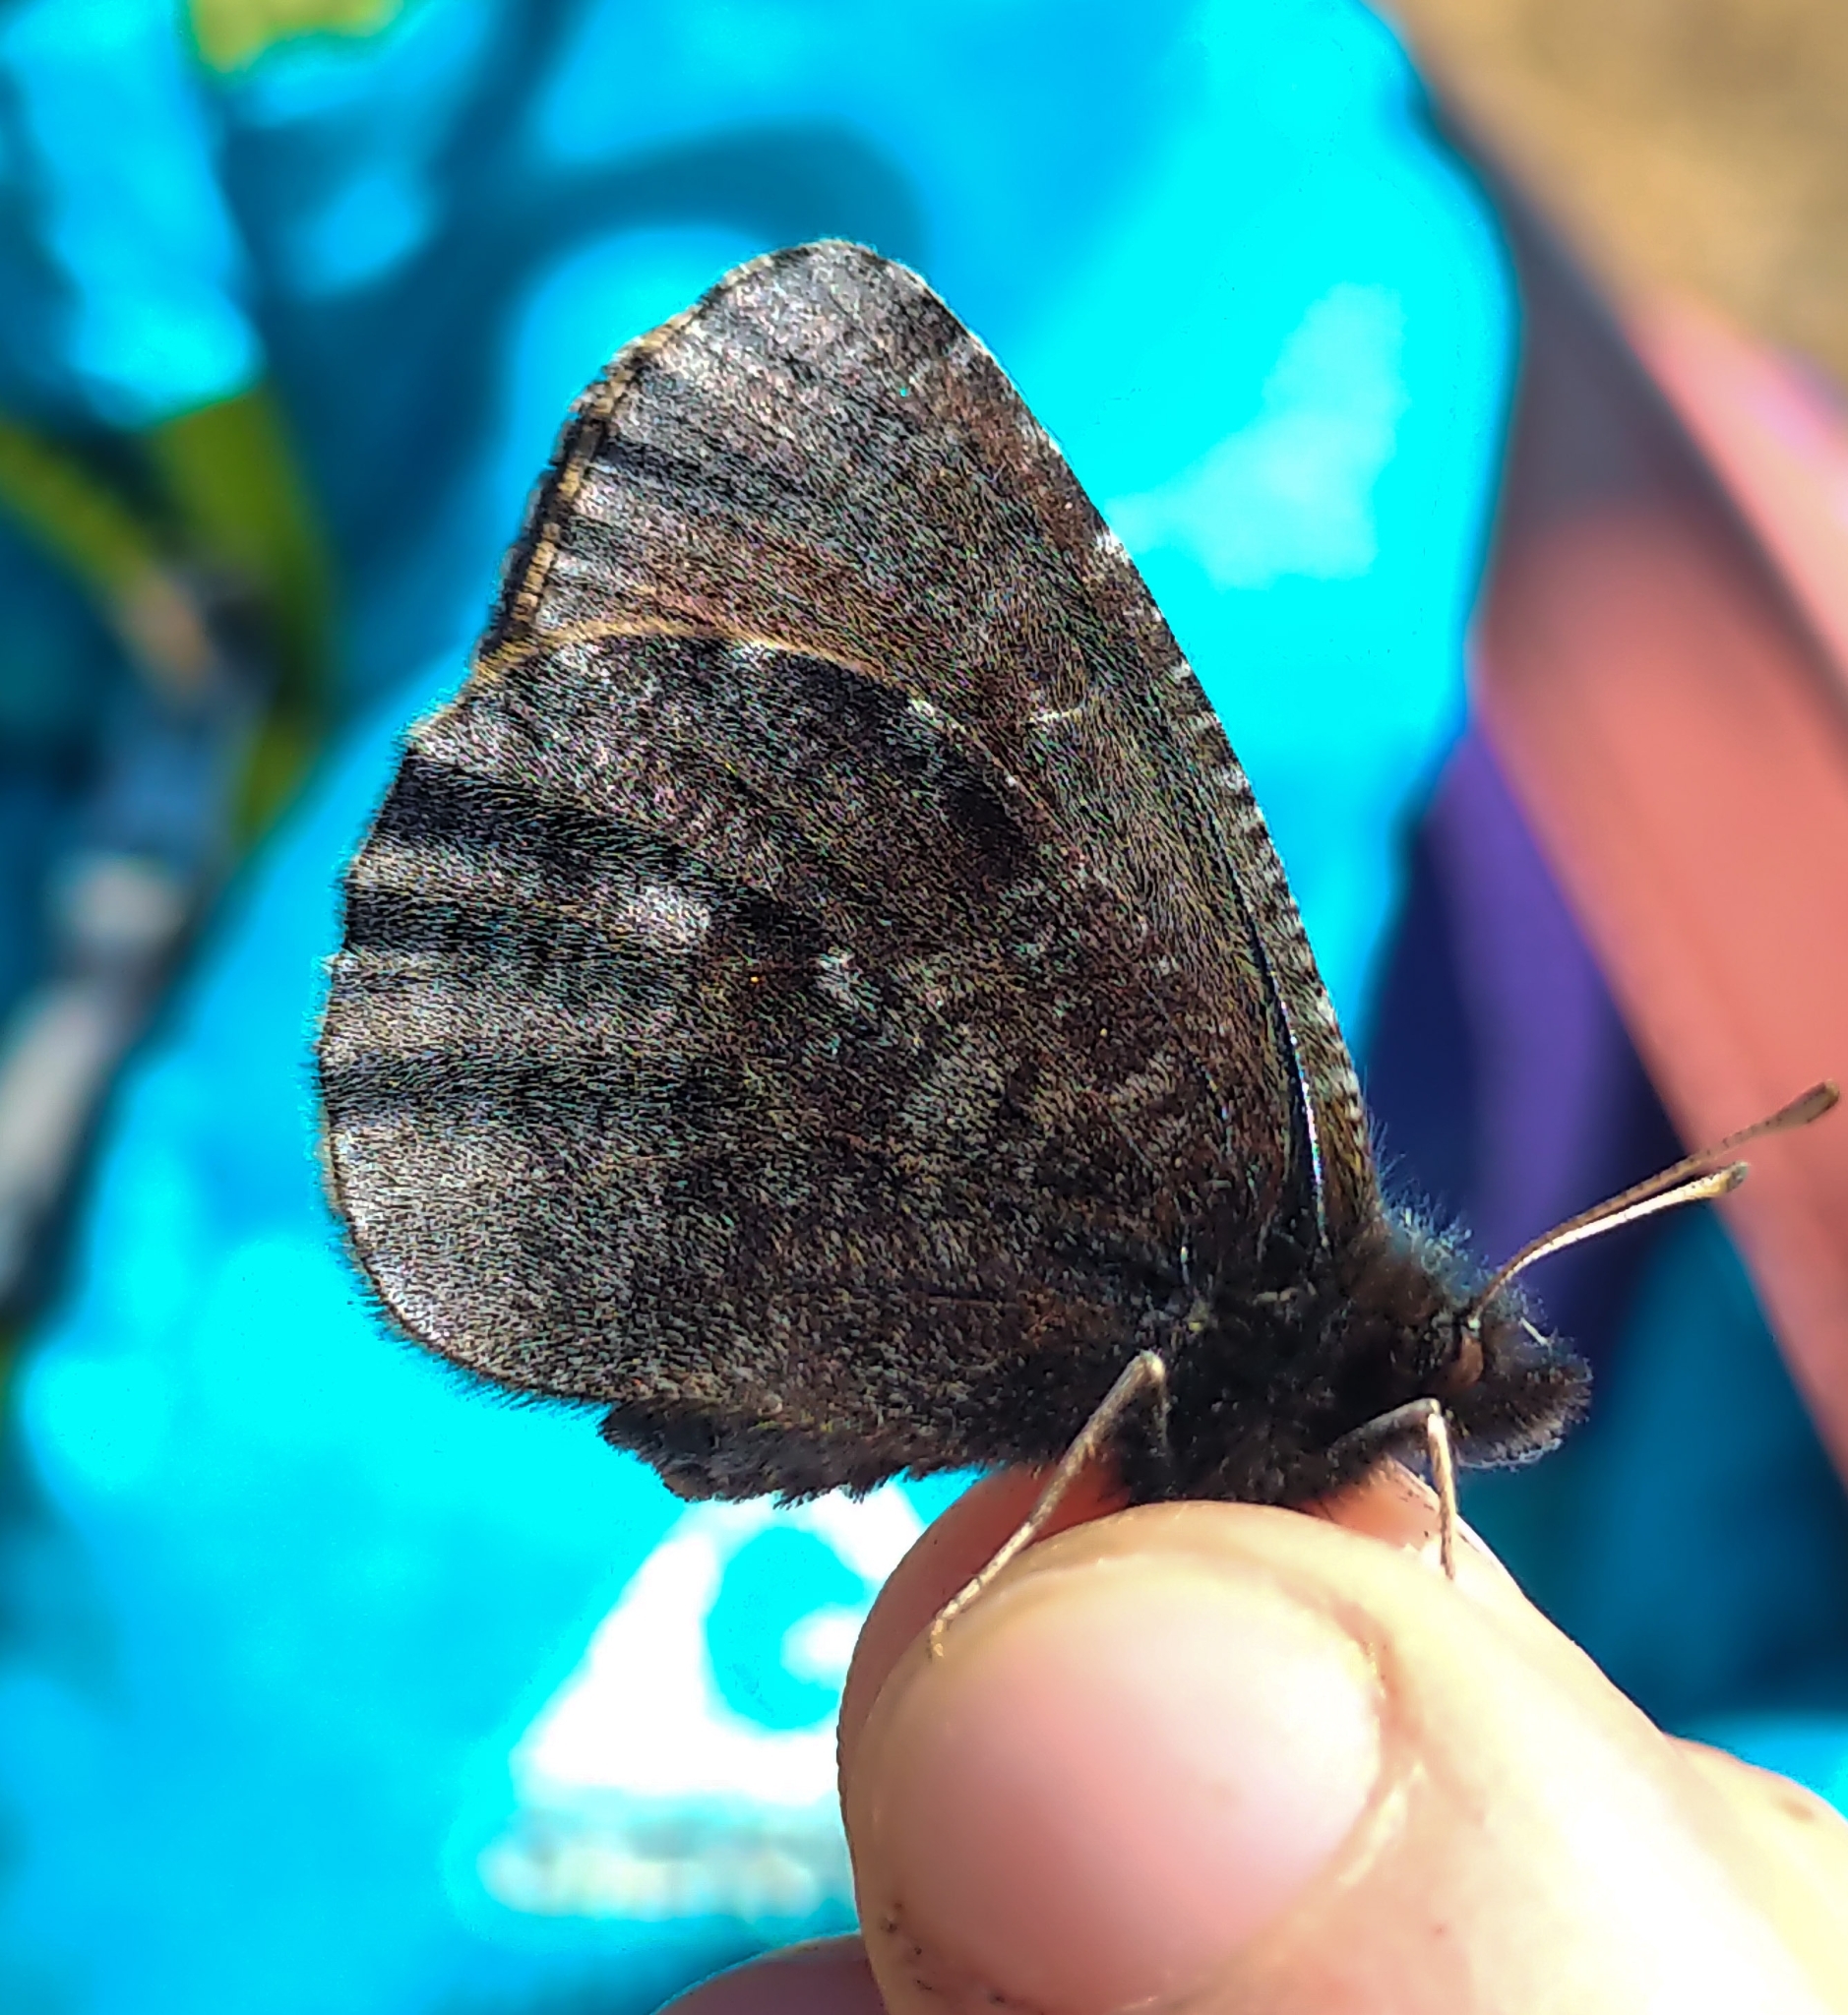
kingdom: Animalia
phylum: Arthropoda
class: Insecta
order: Lepidoptera
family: Nymphalidae
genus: Erebia
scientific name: Erebia discoidalis
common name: Red-disked alpine
